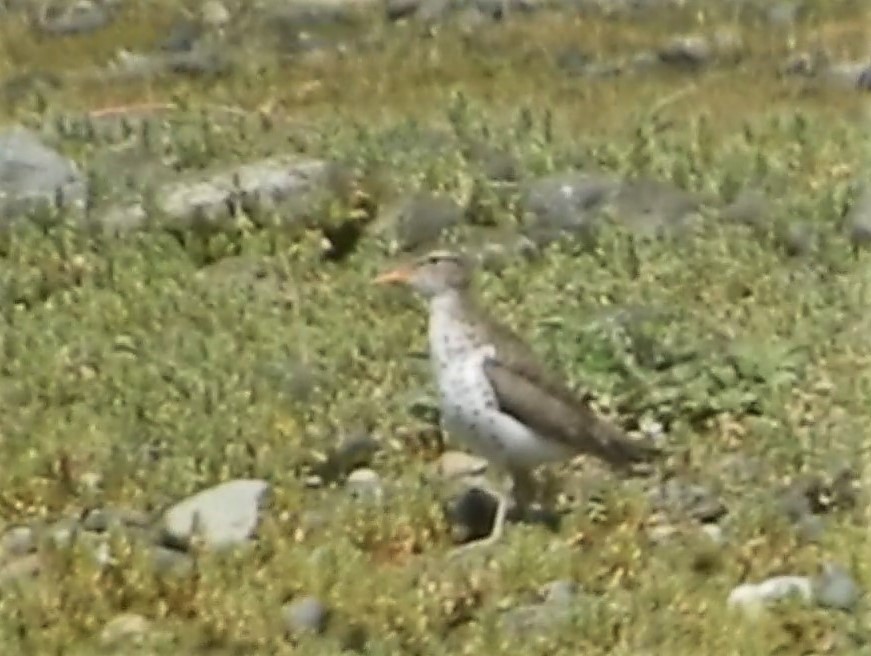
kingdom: Animalia
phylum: Chordata
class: Aves
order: Charadriiformes
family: Scolopacidae
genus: Actitis
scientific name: Actitis macularius
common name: Spotted sandpiper
